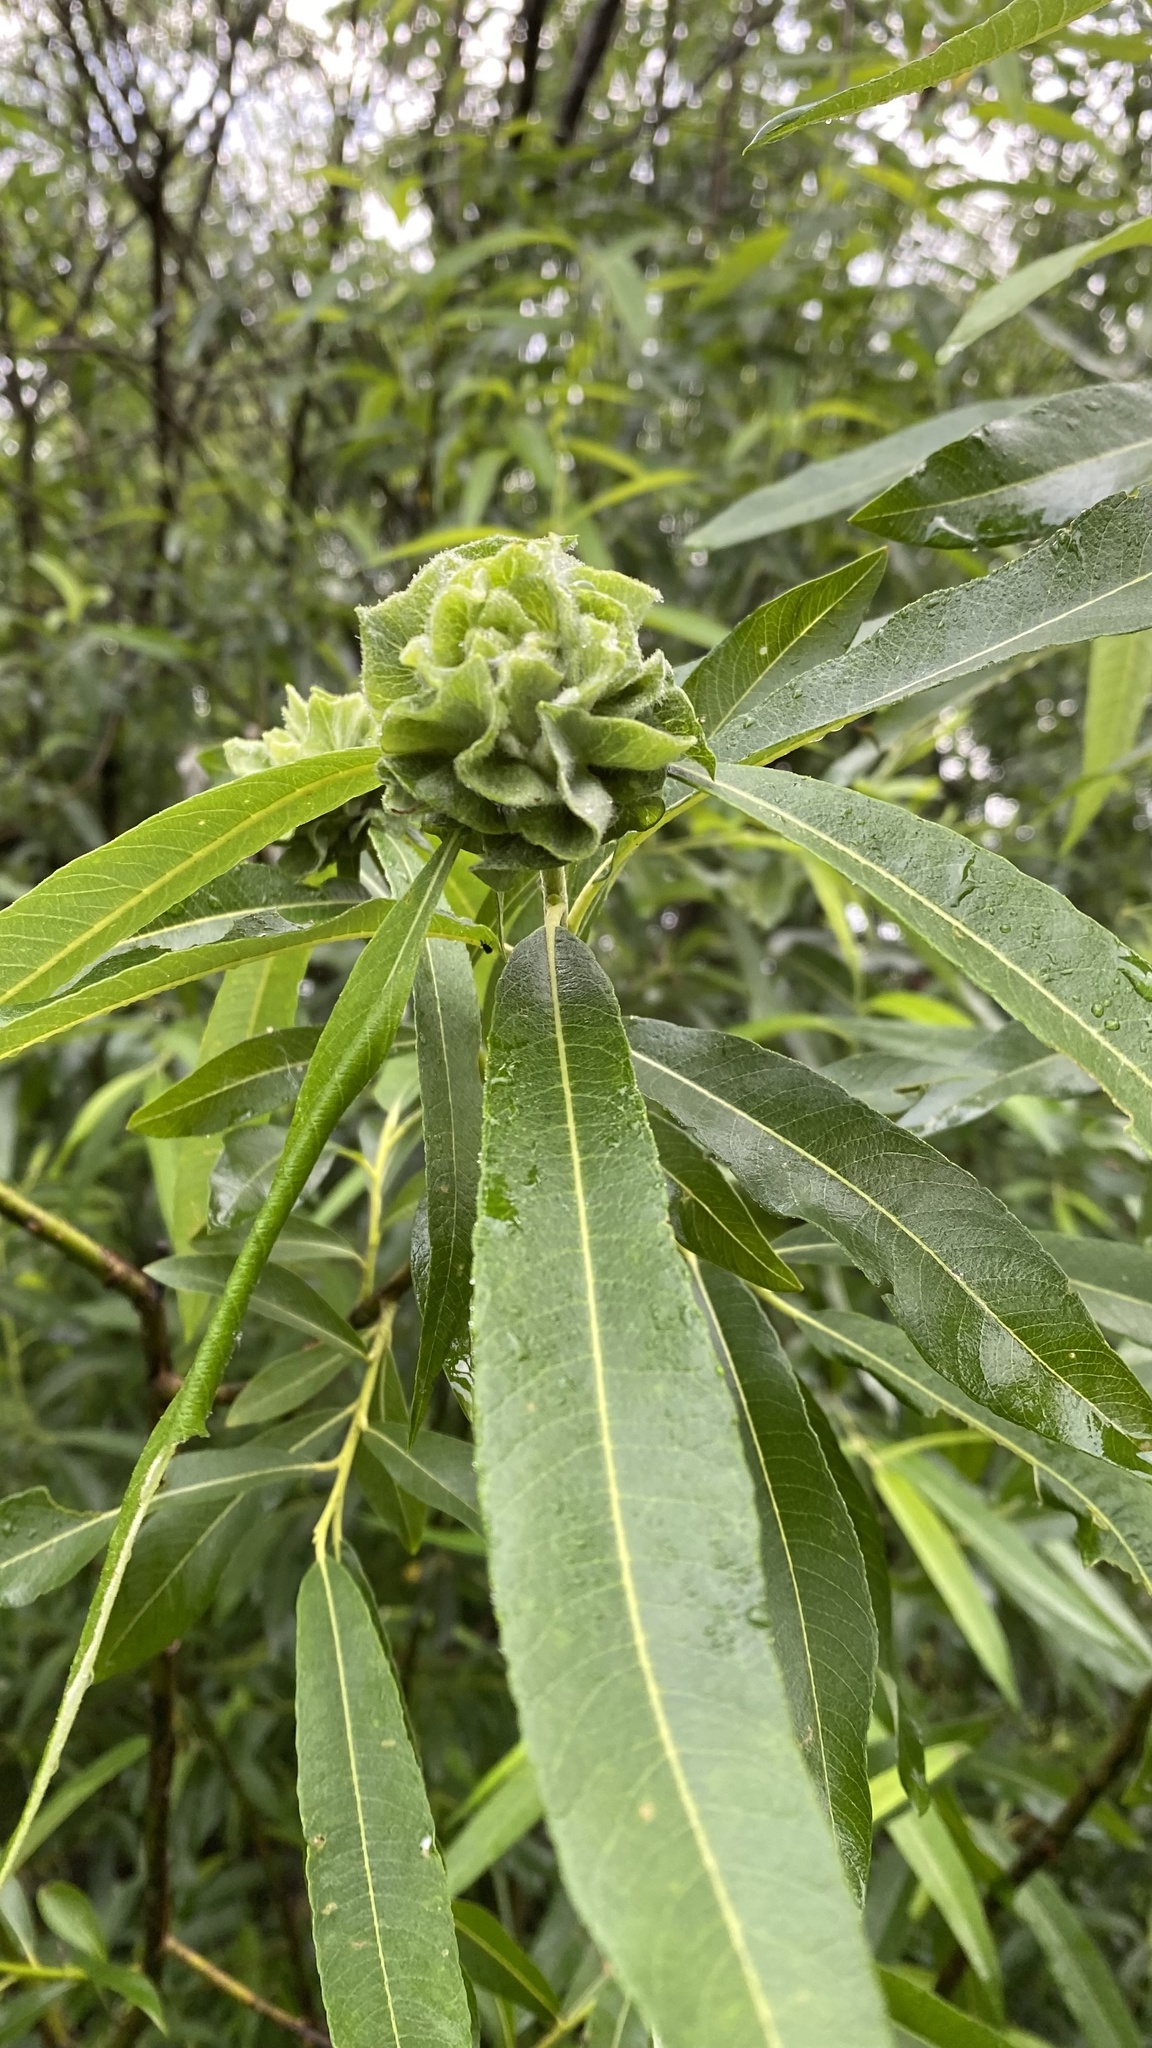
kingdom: Animalia
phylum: Arthropoda
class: Insecta
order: Diptera
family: Cecidomyiidae
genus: Rabdophaga
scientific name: Rabdophaga rosaria
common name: Willow rose gall midge
